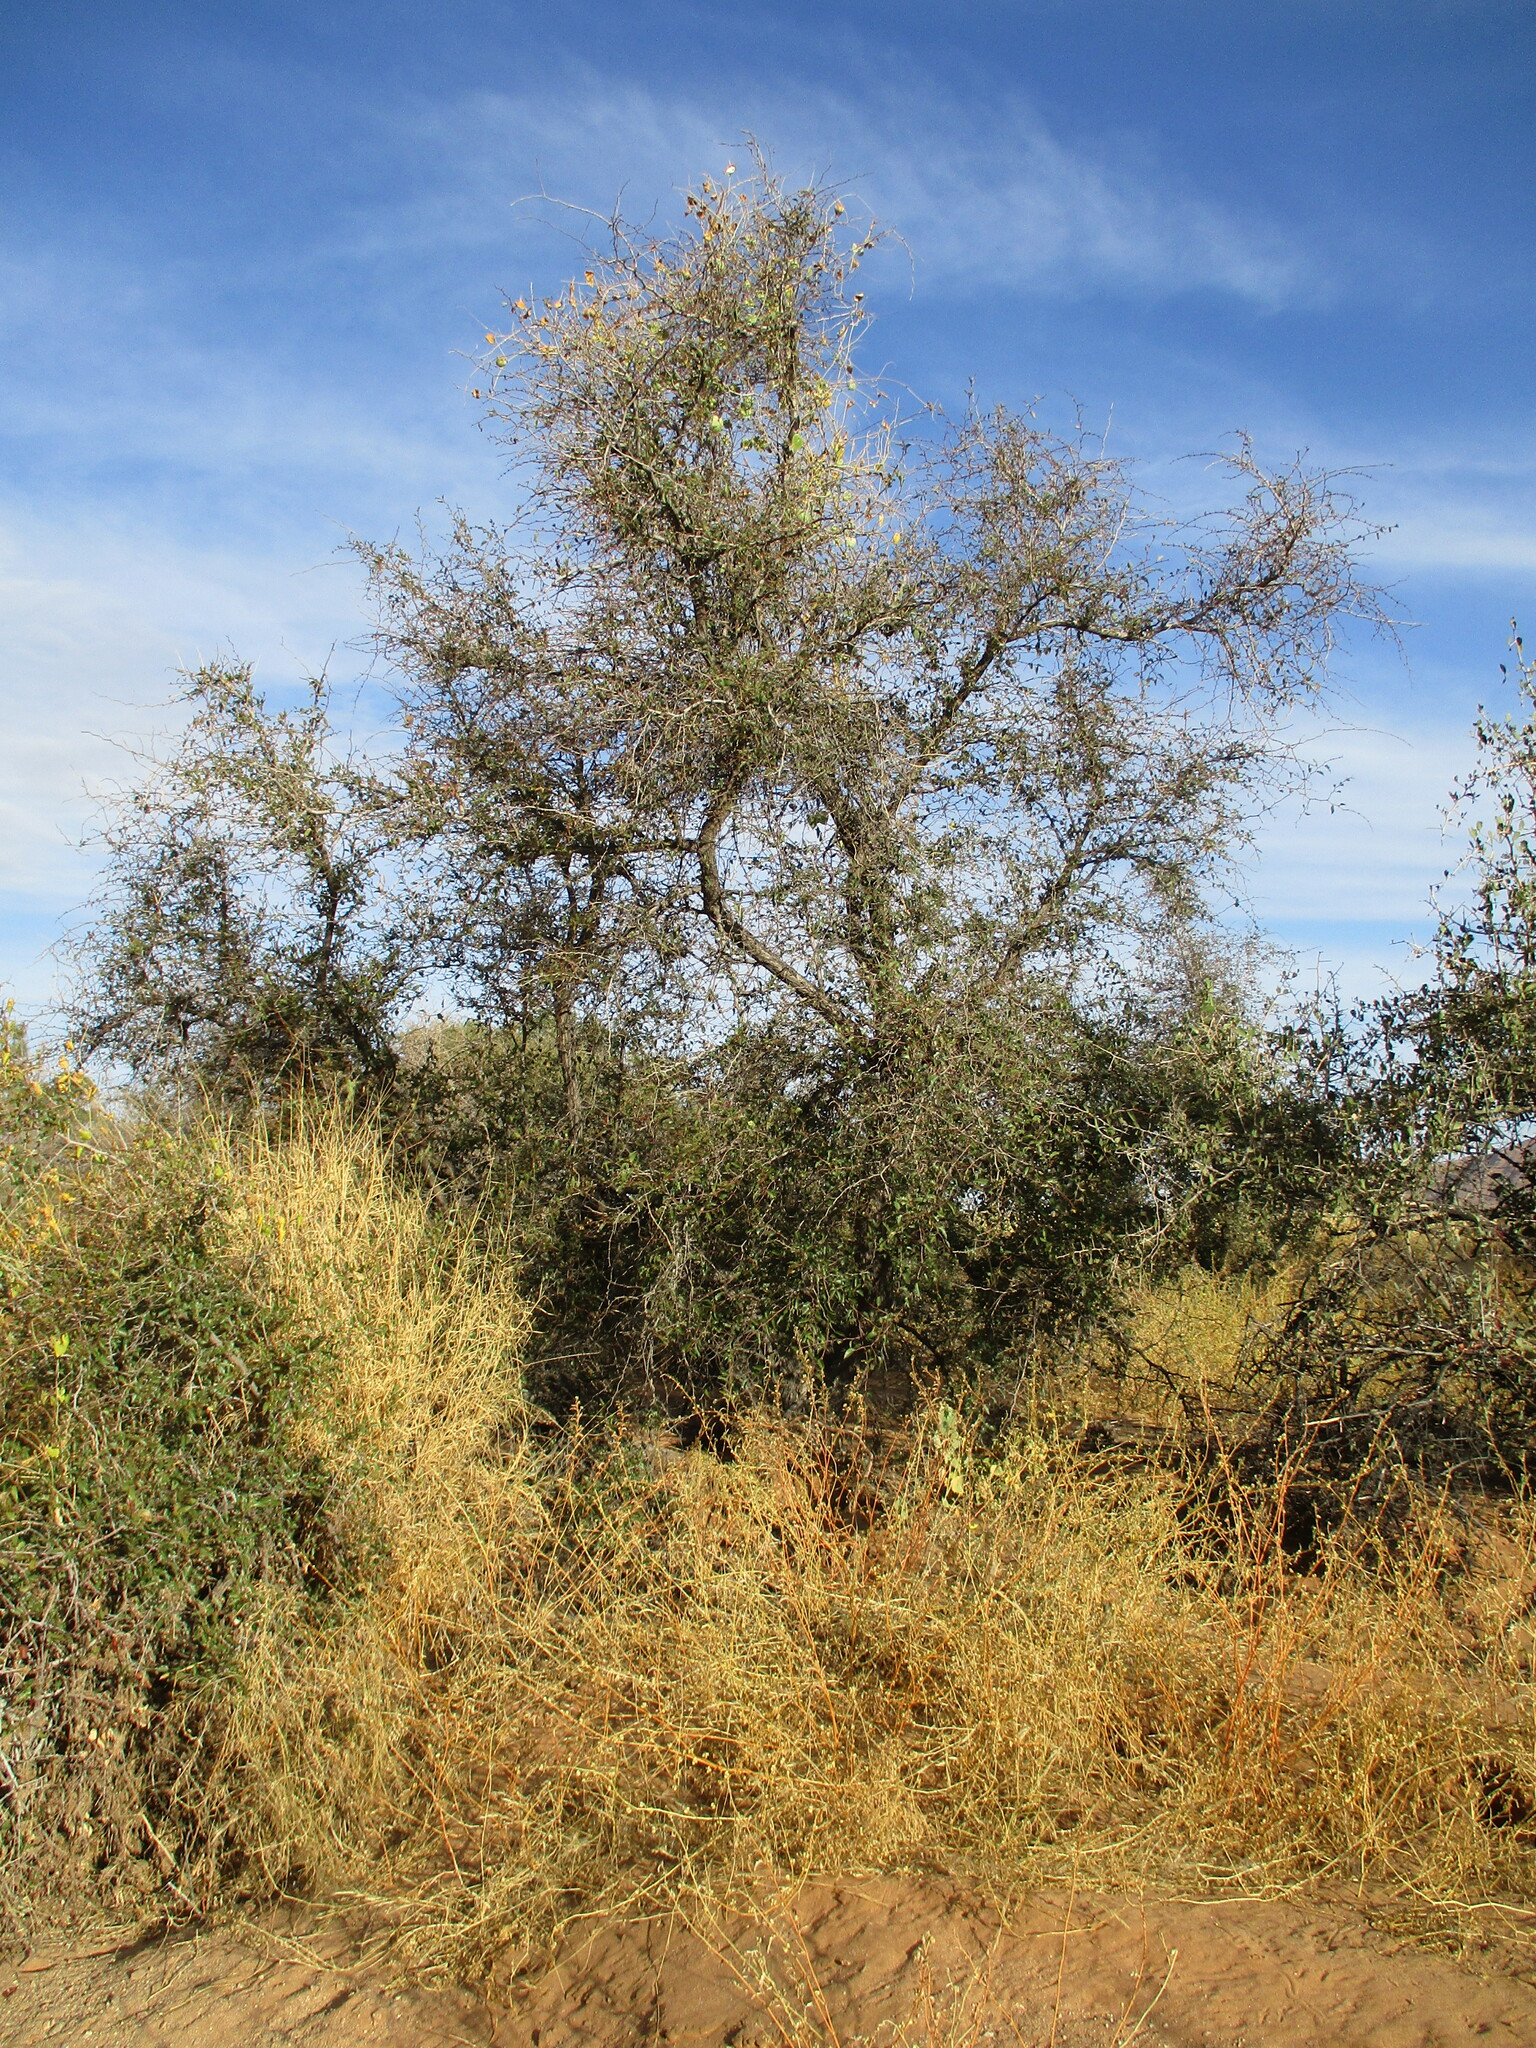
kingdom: Plantae
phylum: Tracheophyta
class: Magnoliopsida
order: Rosales
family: Rhamnaceae
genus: Ziziphus
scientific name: Ziziphus mucronata
